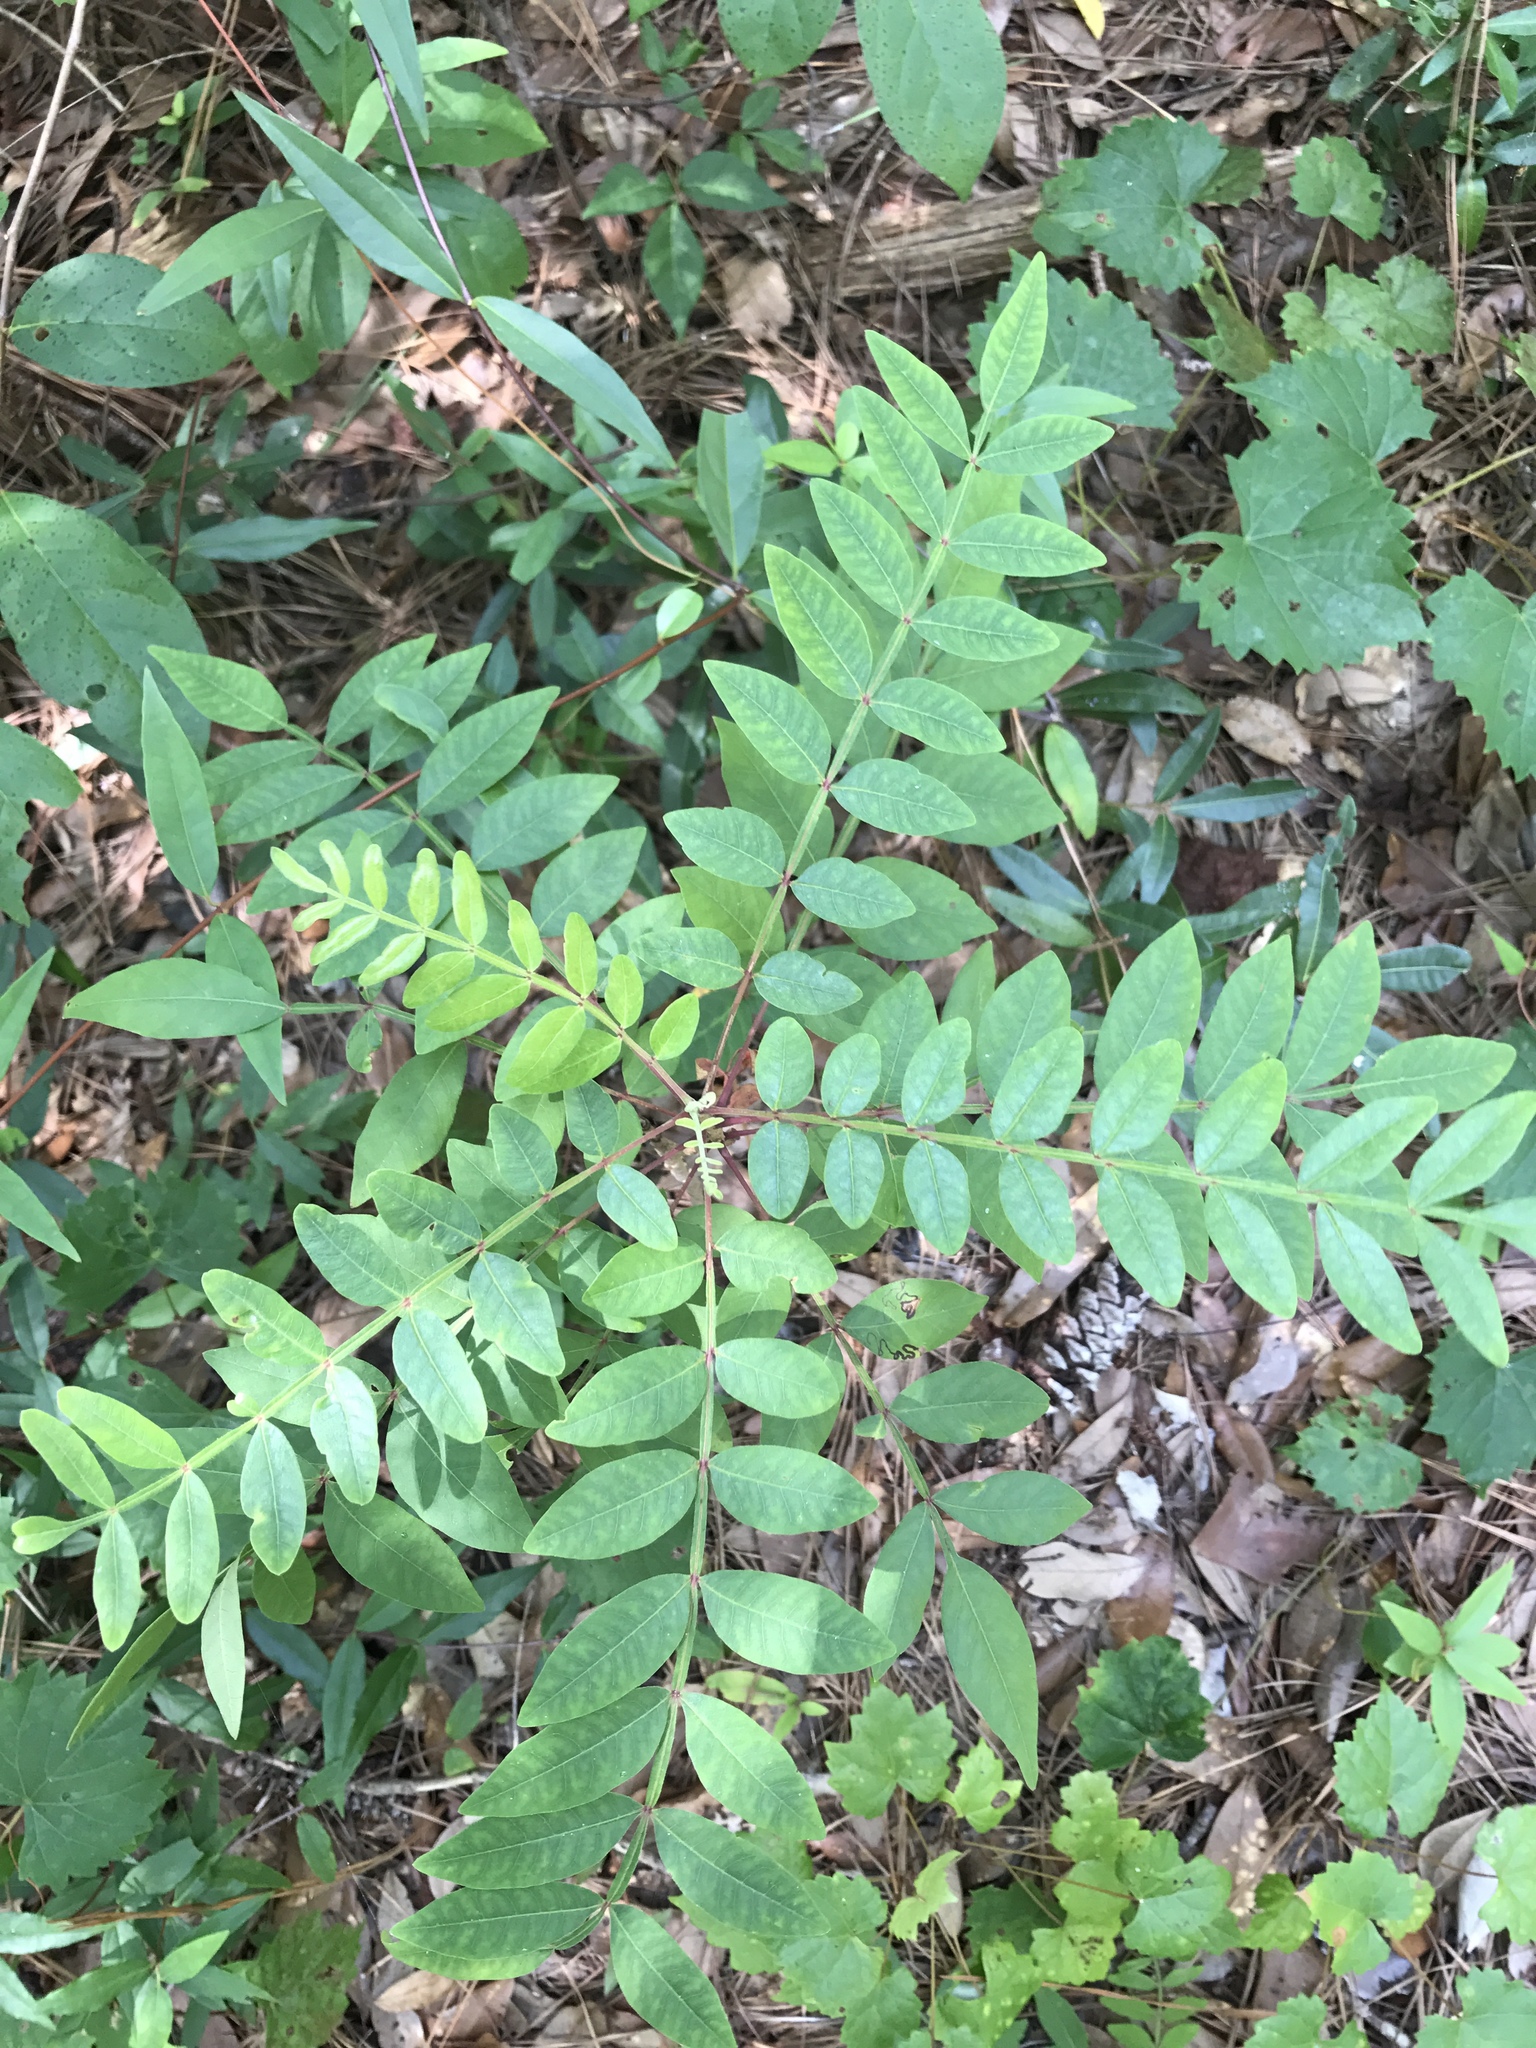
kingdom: Plantae
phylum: Tracheophyta
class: Magnoliopsida
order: Sapindales
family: Anacardiaceae
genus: Rhus
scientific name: Rhus copallina
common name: Shining sumac
